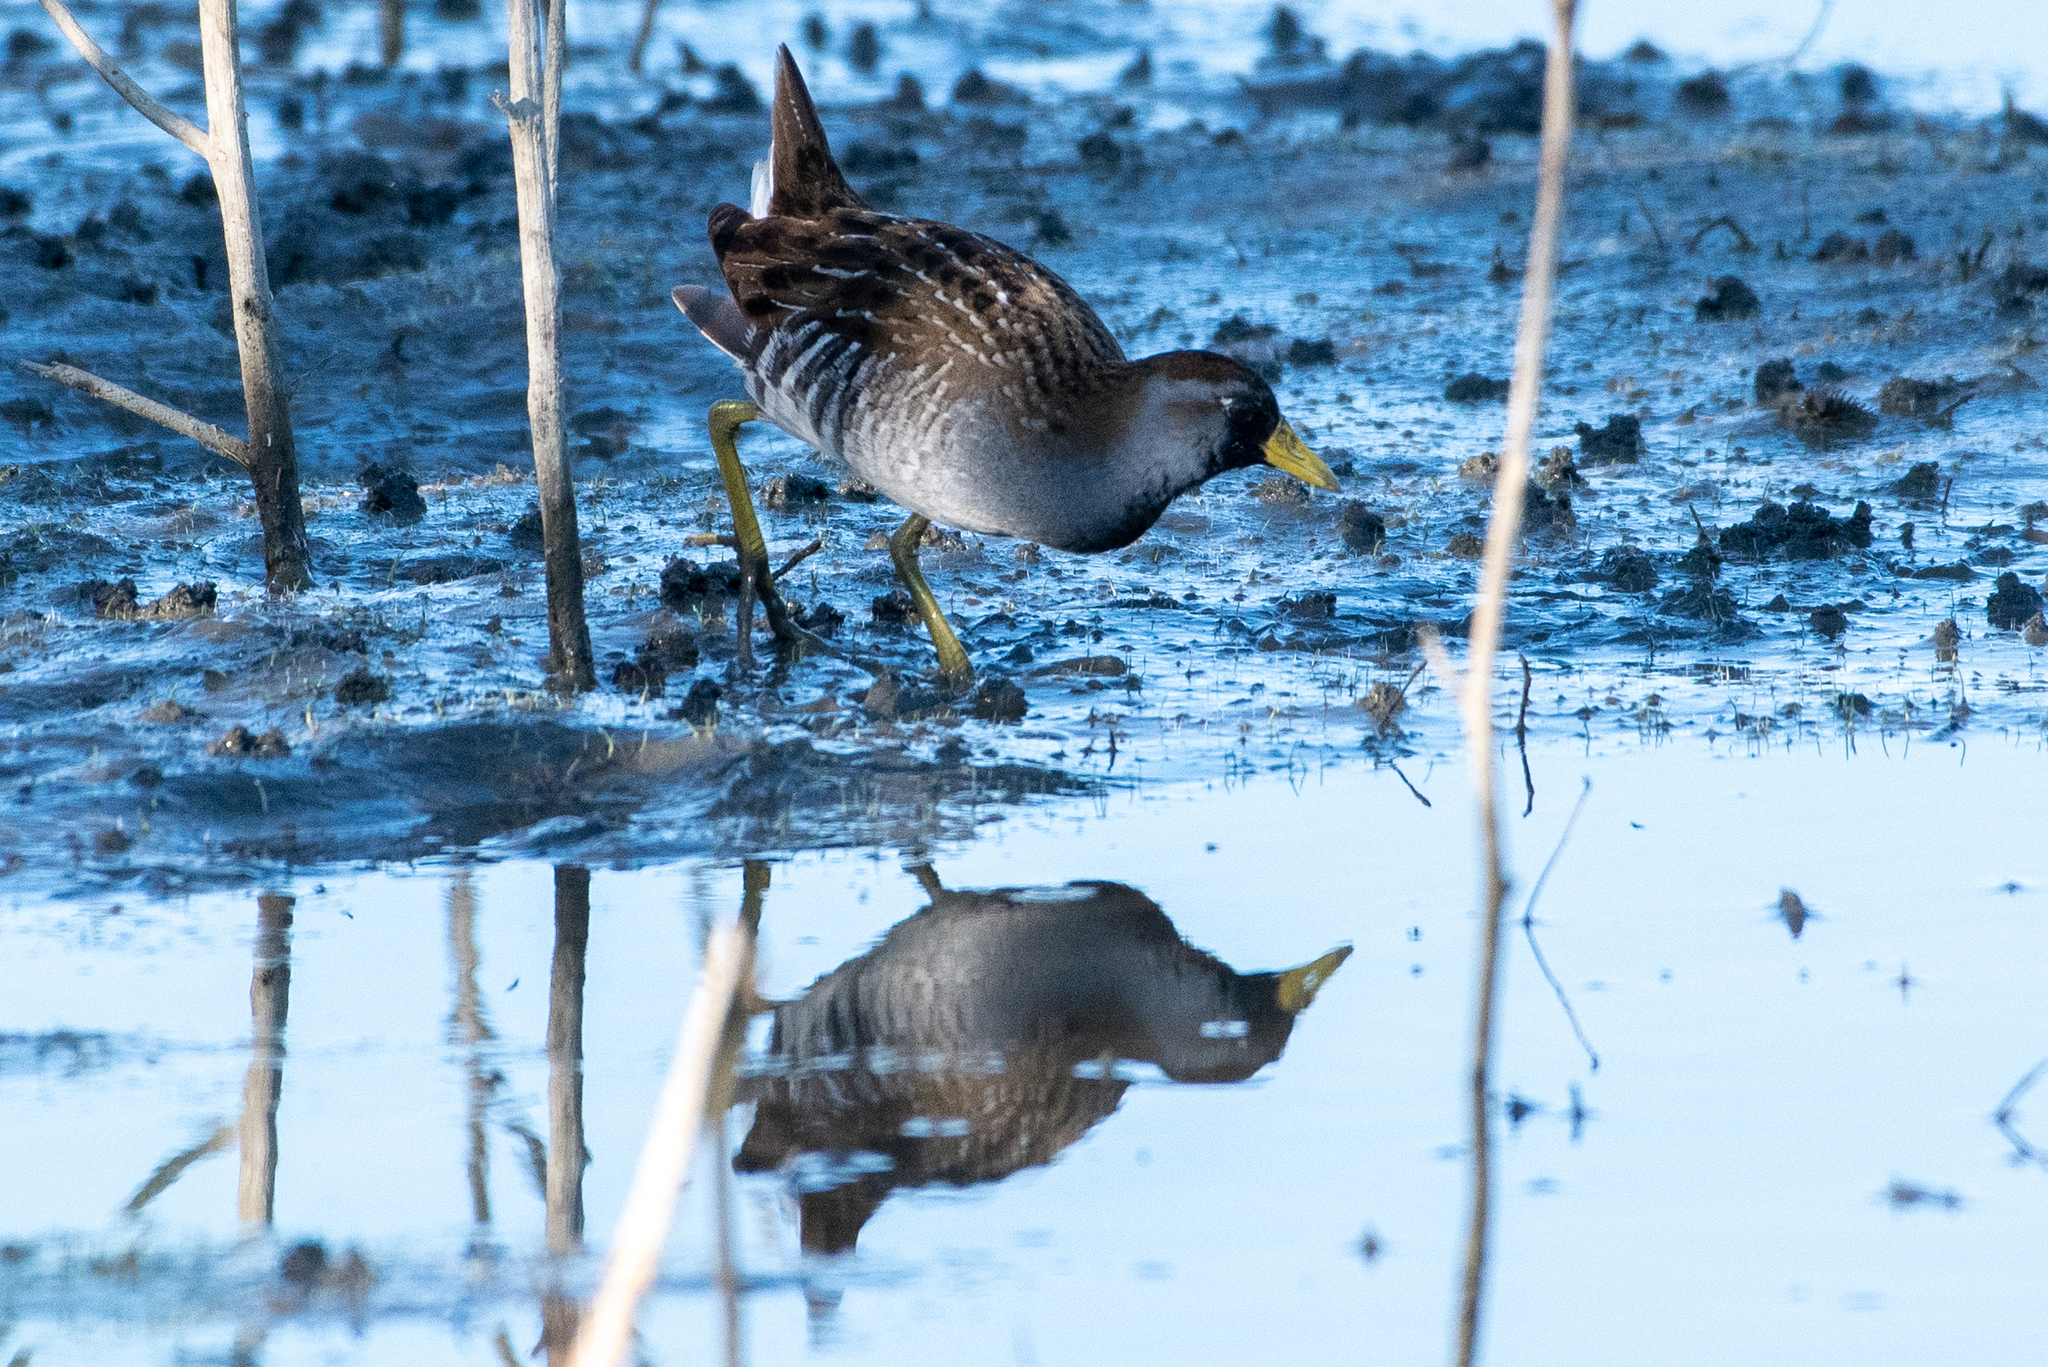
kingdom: Animalia
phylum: Chordata
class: Aves
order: Gruiformes
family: Rallidae
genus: Porzana
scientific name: Porzana carolina
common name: Sora
